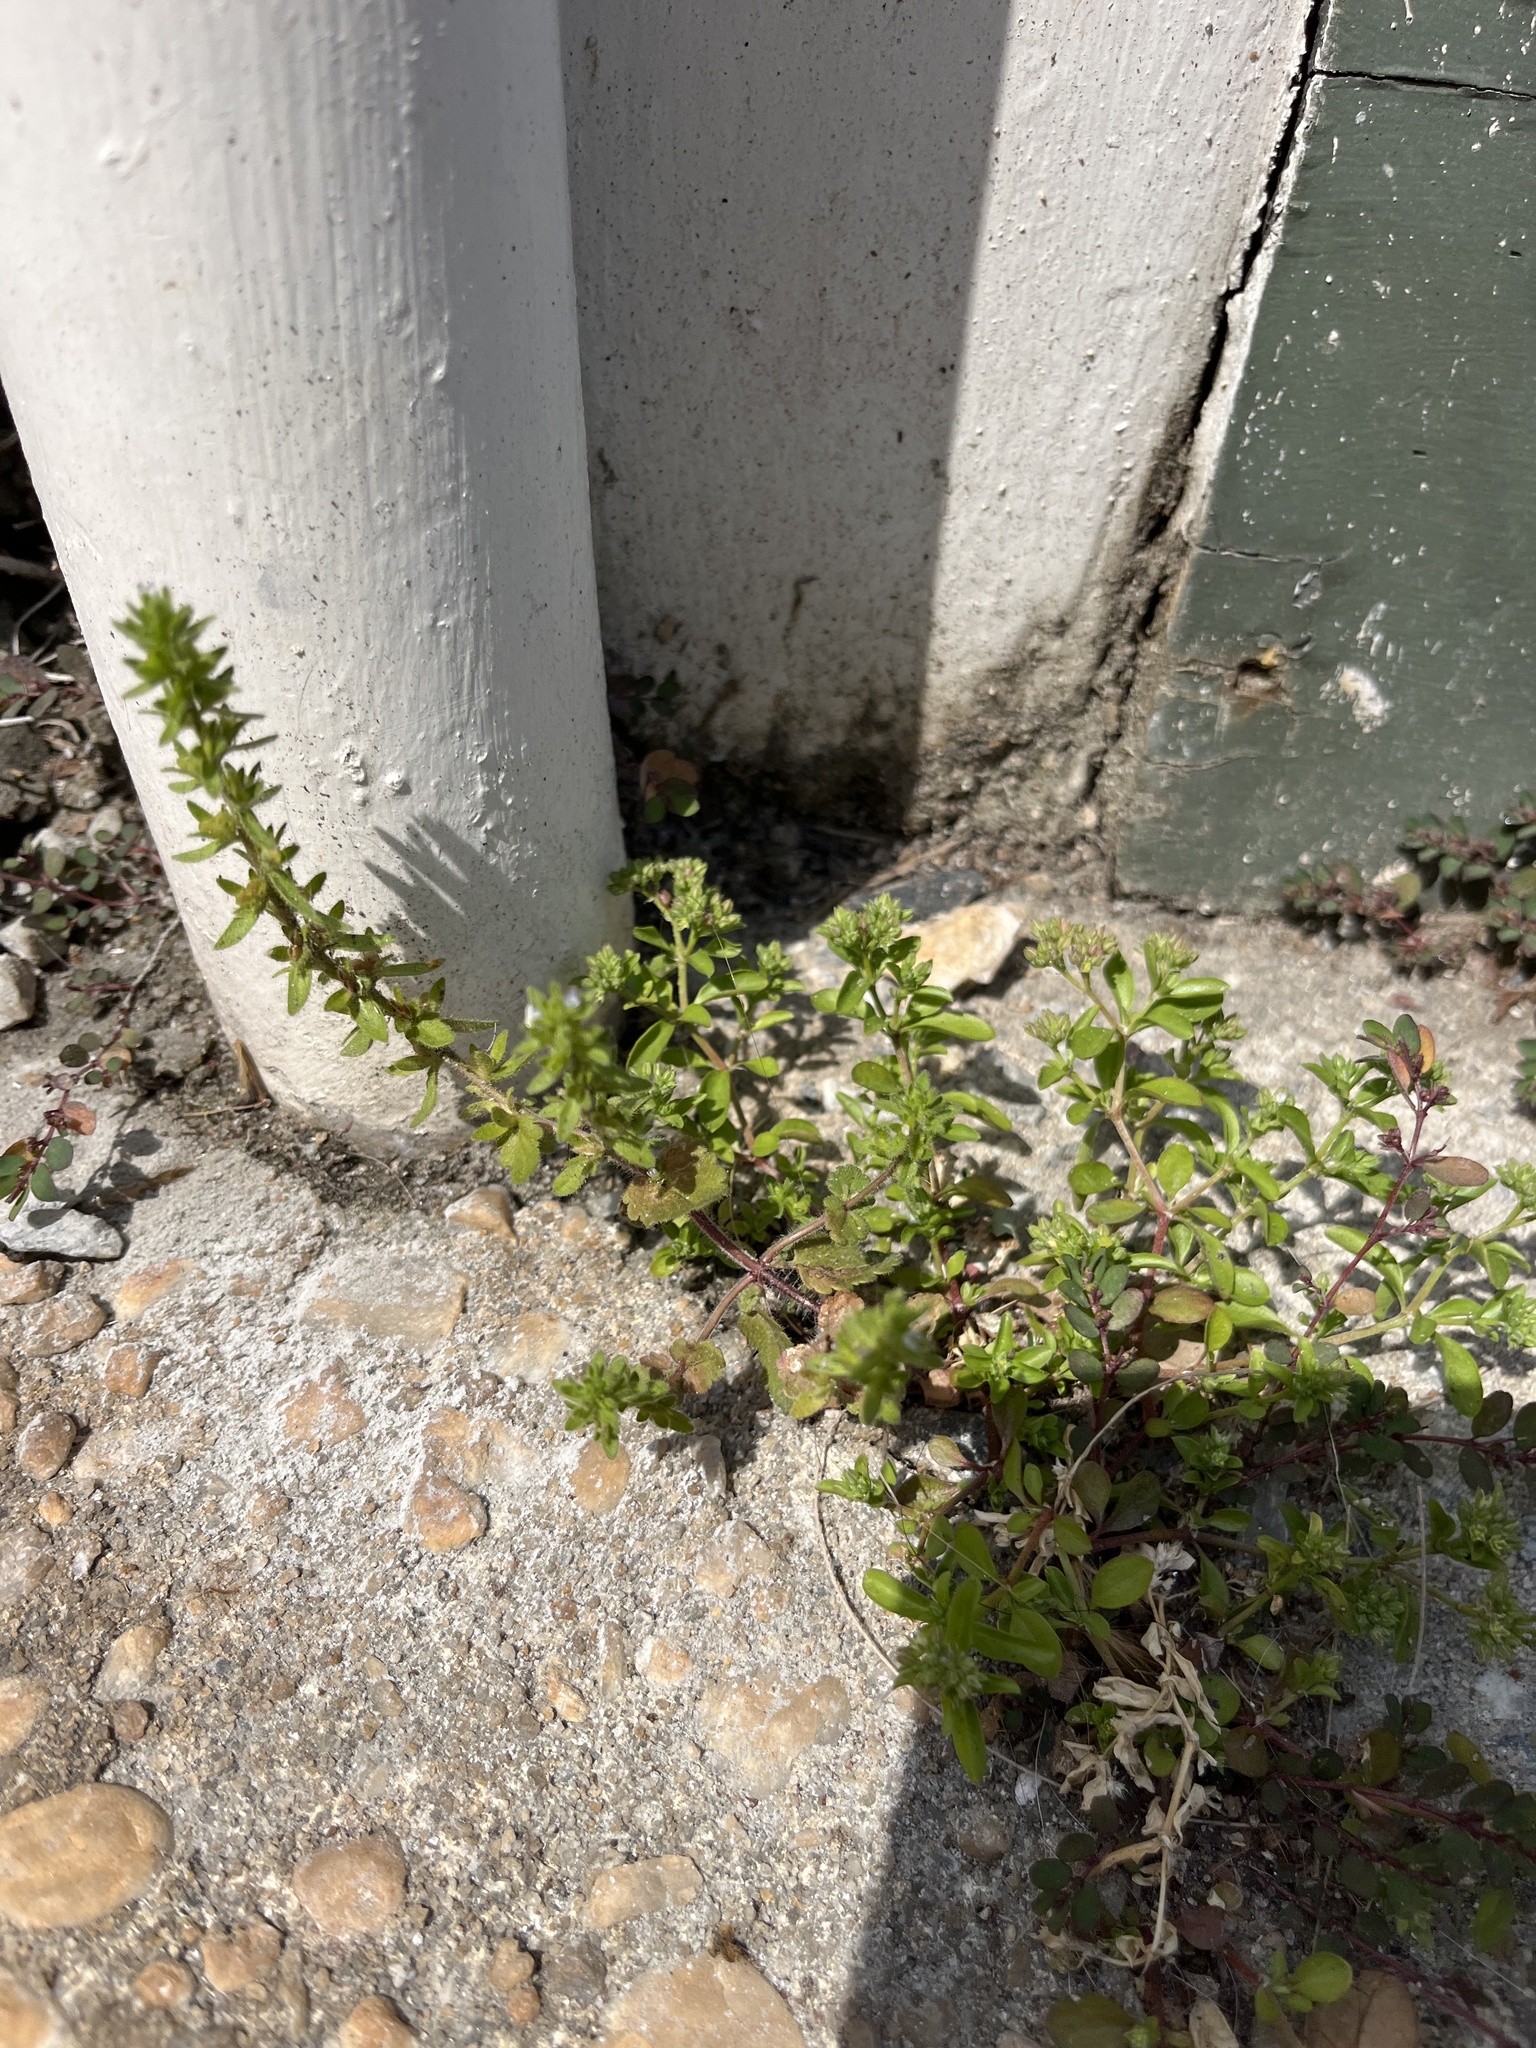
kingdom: Plantae
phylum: Tracheophyta
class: Magnoliopsida
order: Lamiales
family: Plantaginaceae
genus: Veronica
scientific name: Veronica arvensis
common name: Corn speedwell
